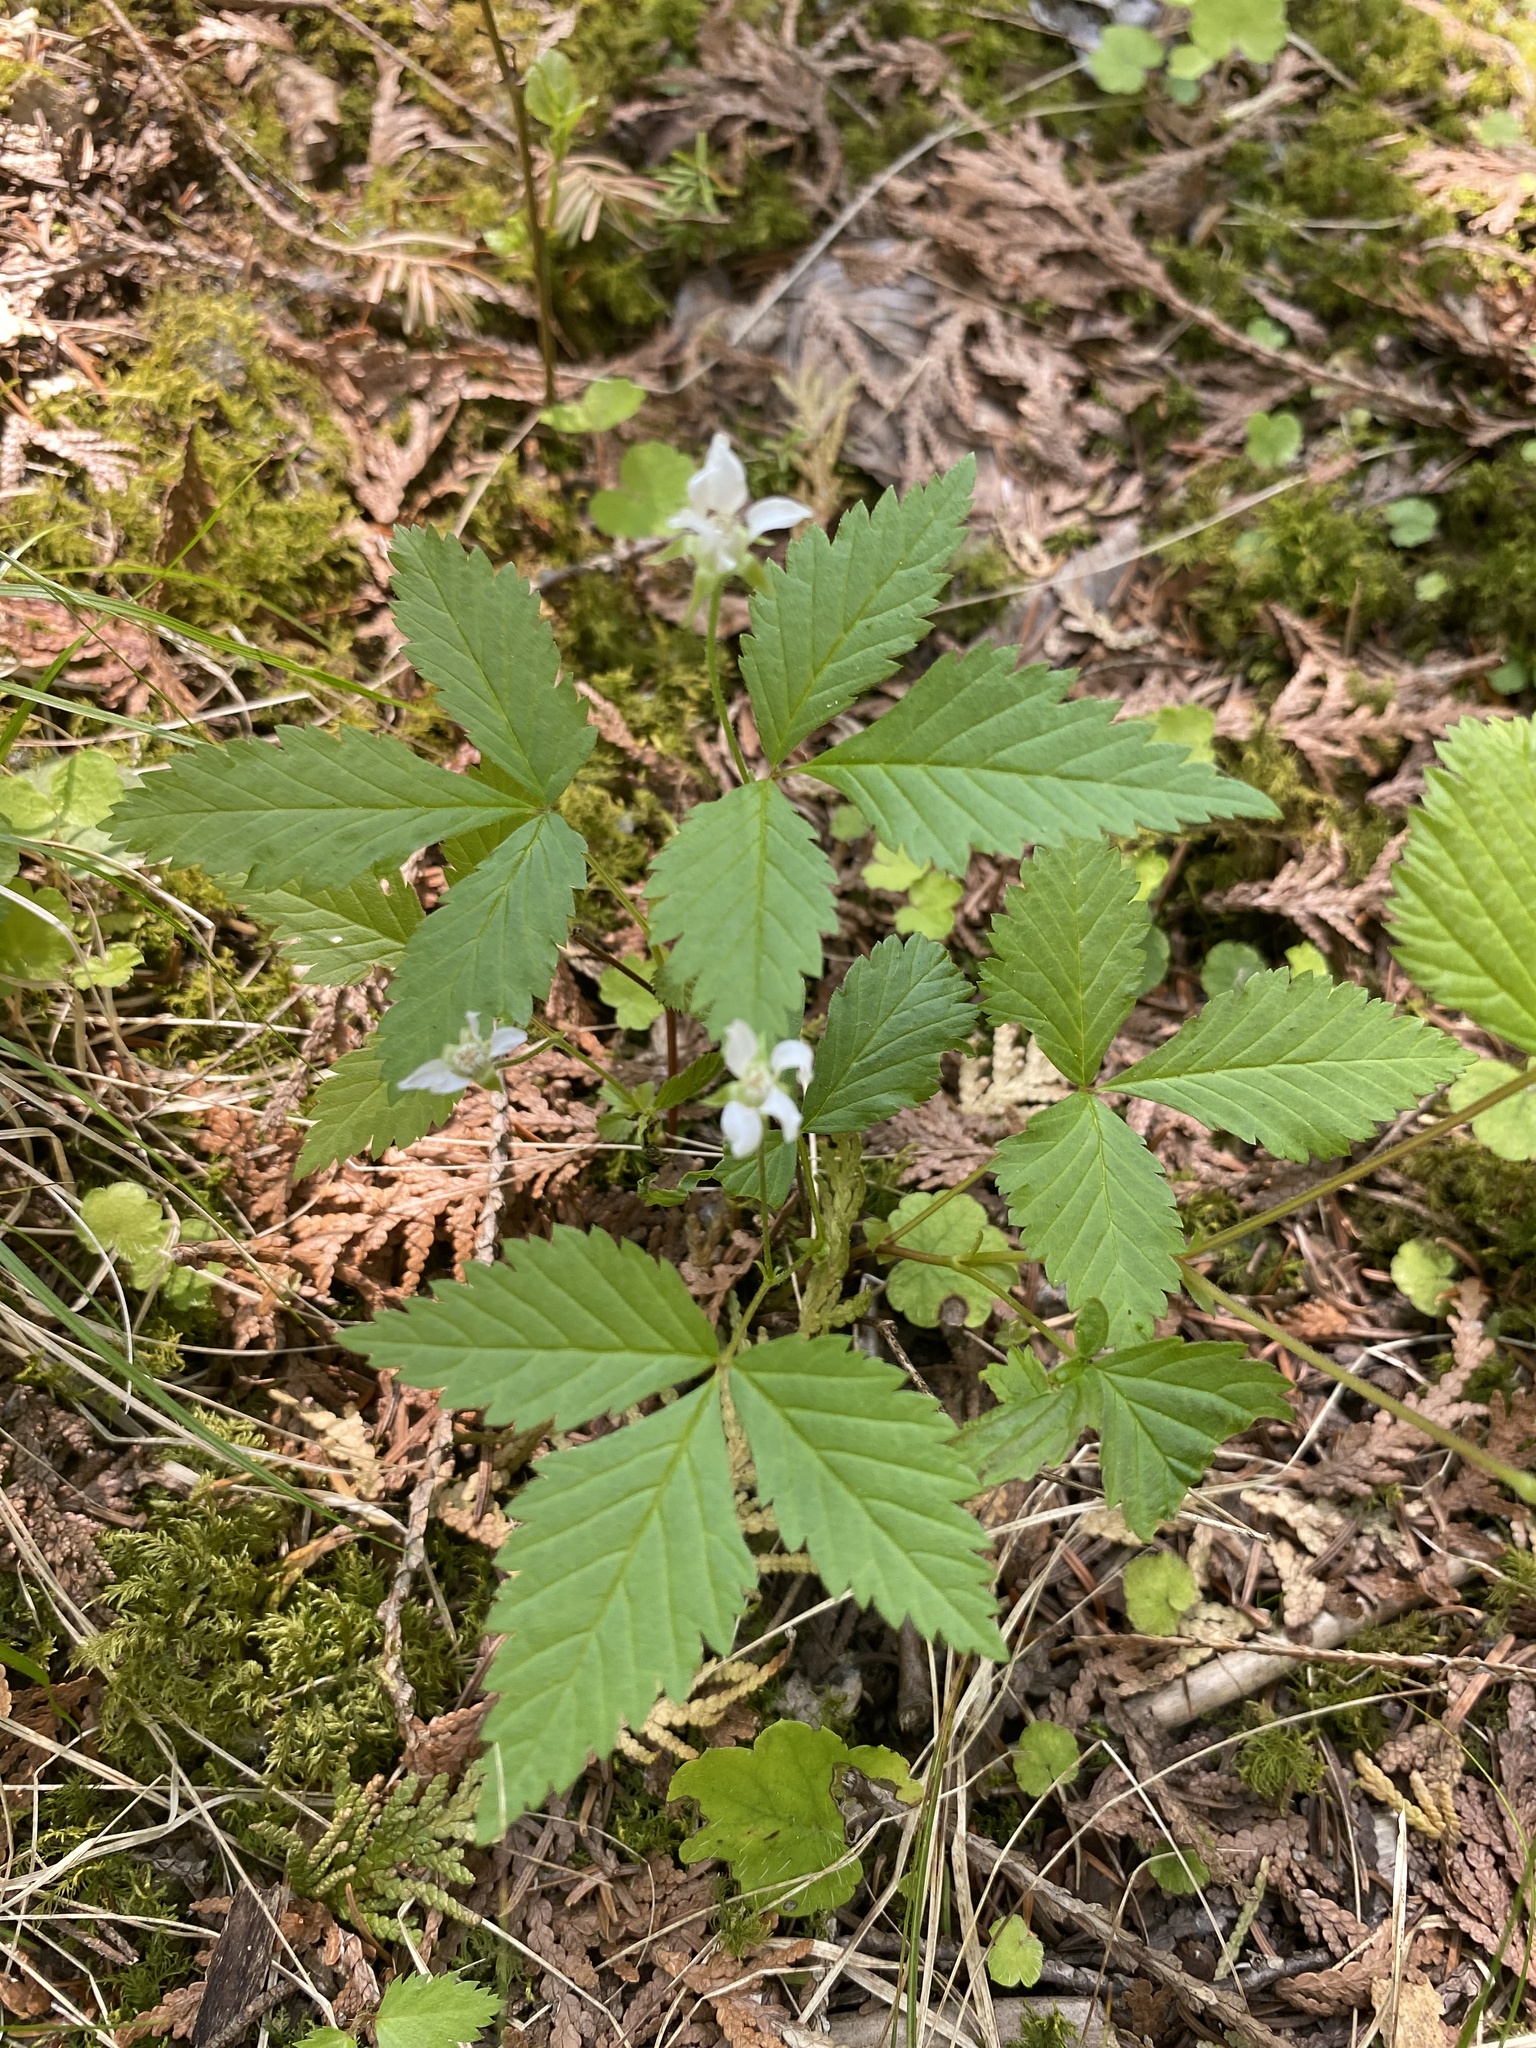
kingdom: Plantae
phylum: Tracheophyta
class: Magnoliopsida
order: Rosales
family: Rosaceae
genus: Rubus
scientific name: Rubus pubescens
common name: Dwarf raspberry
